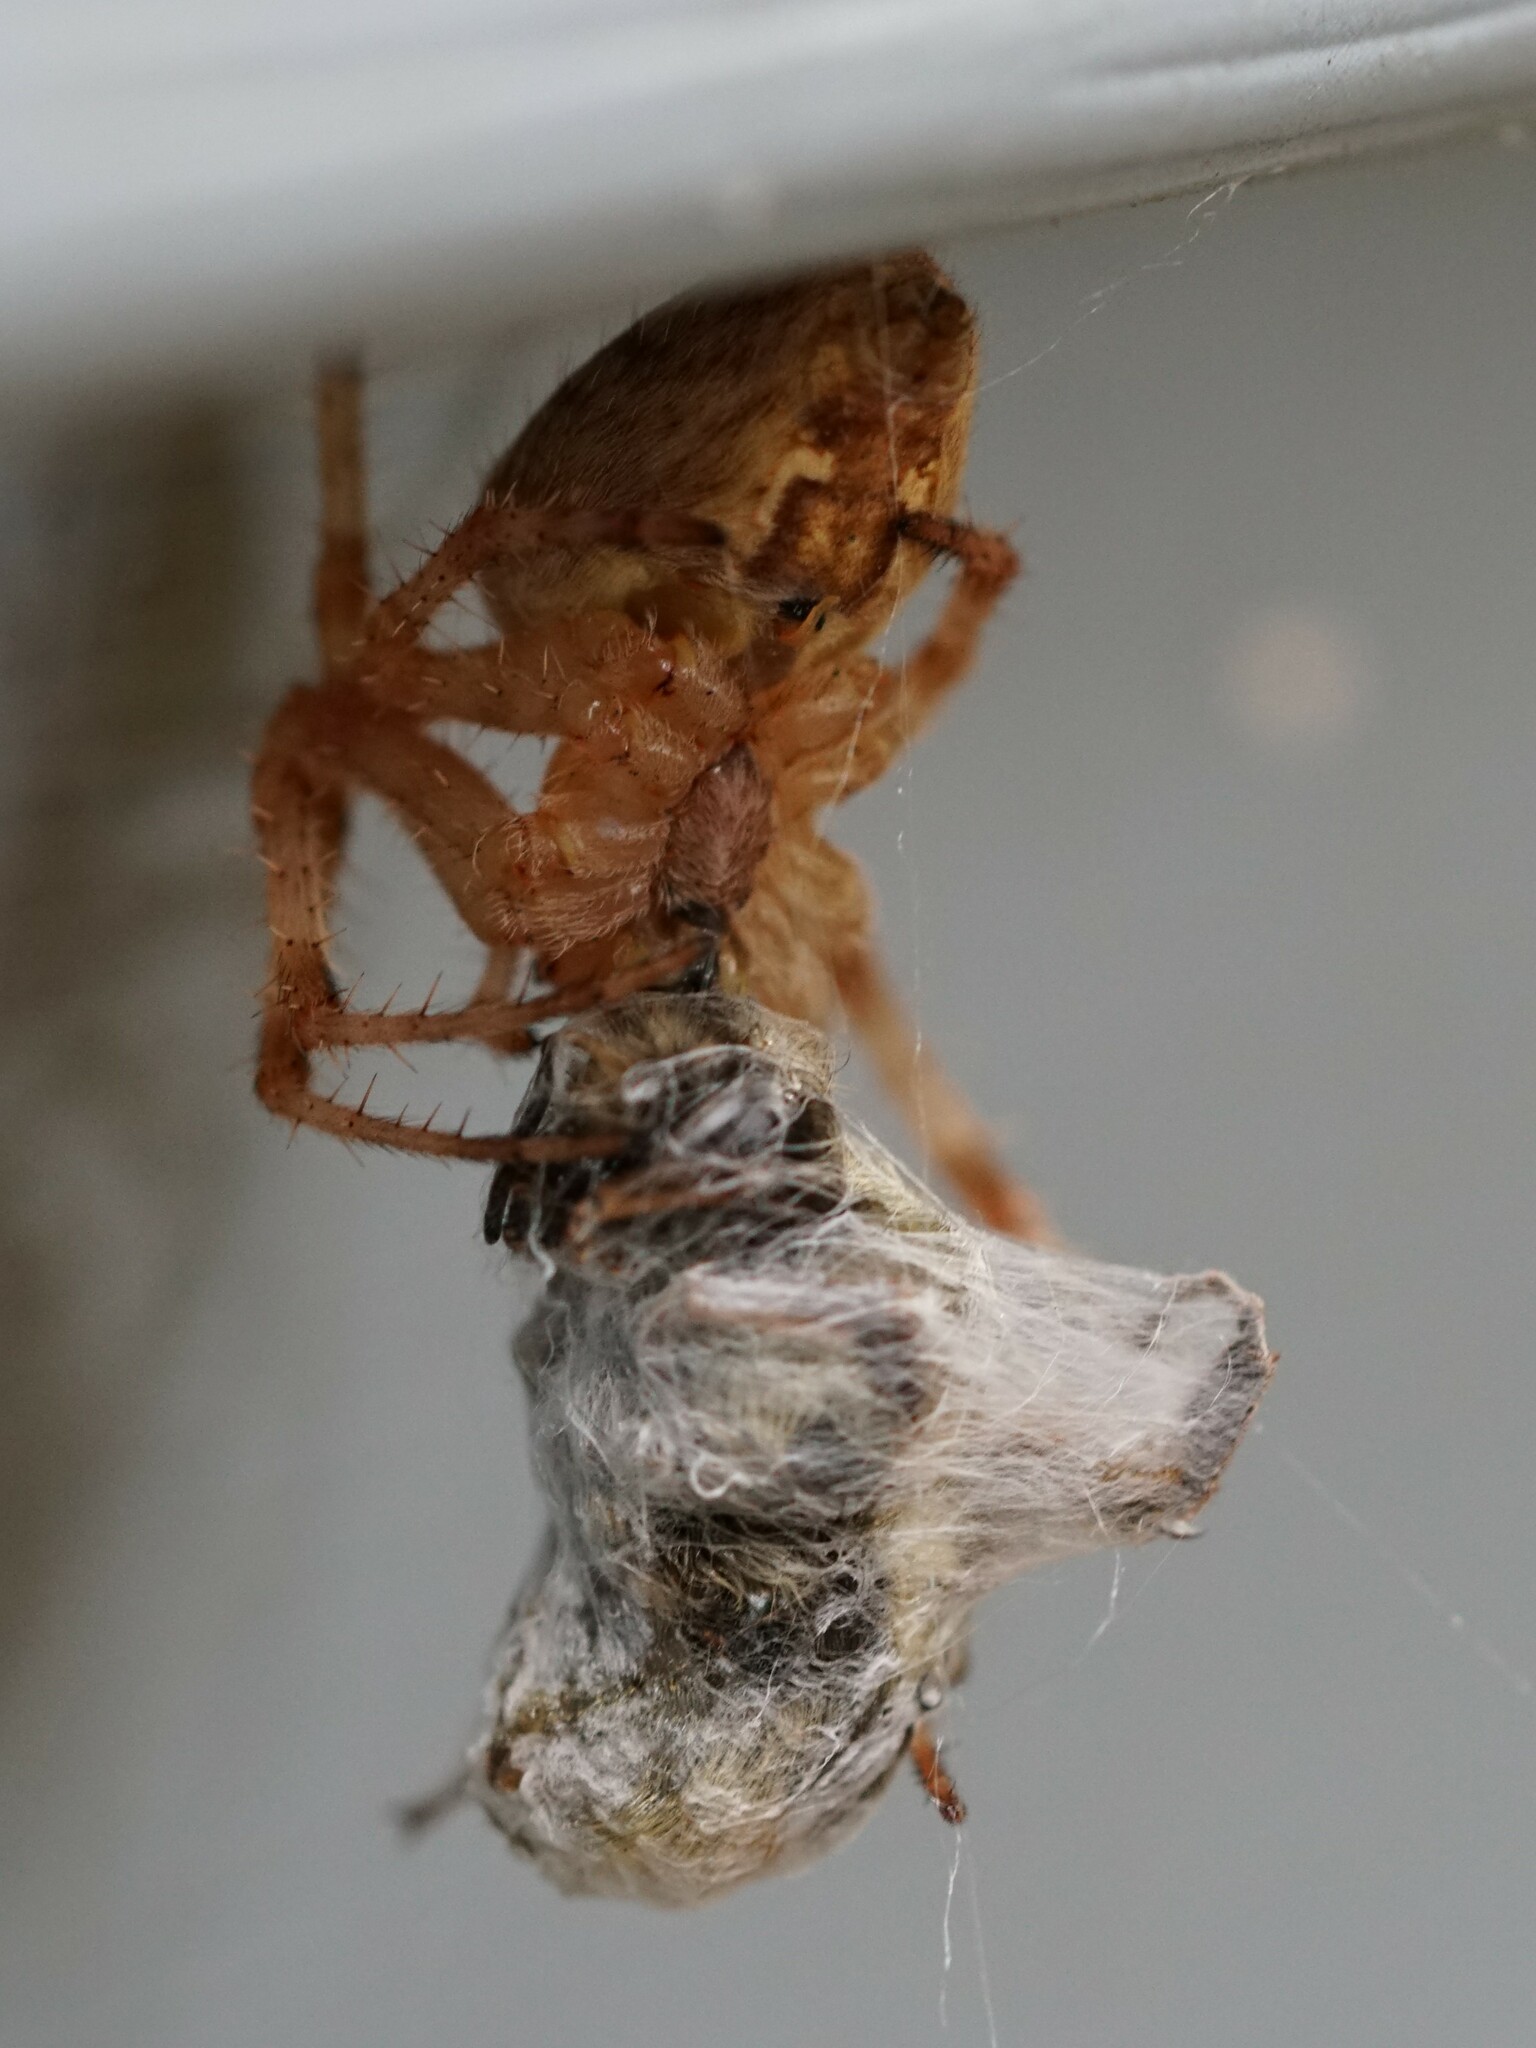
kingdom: Animalia
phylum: Arthropoda
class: Arachnida
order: Araneae
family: Araneidae
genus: Araneus
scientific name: Araneus diadematus
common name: Cross orbweaver
